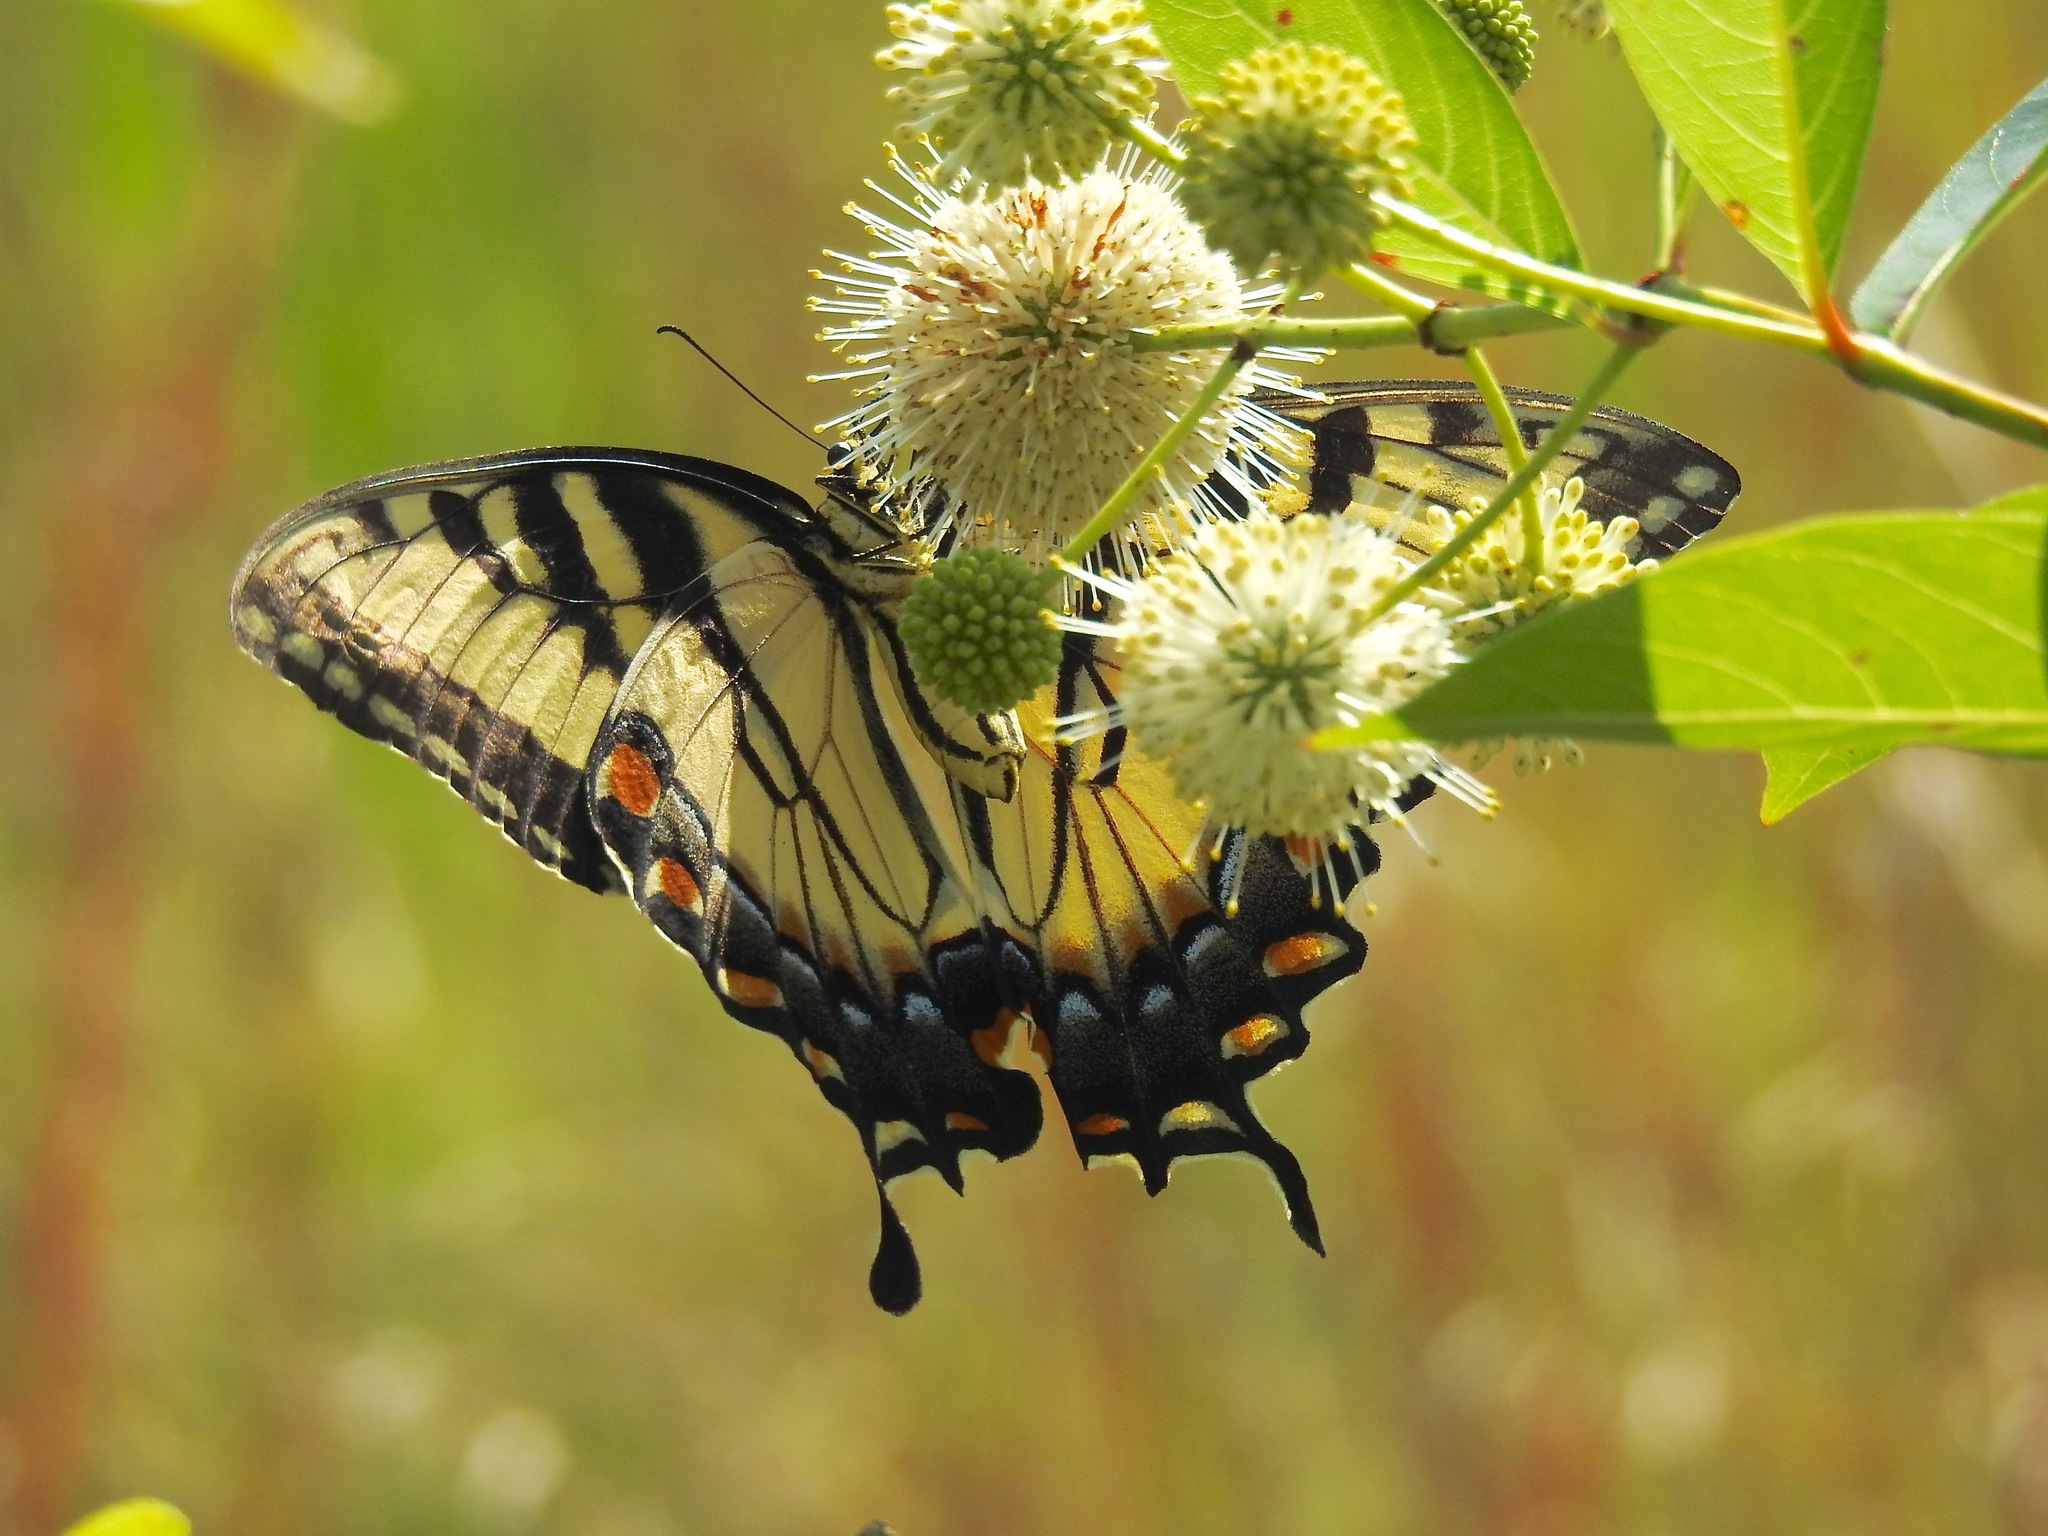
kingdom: Animalia
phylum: Arthropoda
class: Insecta
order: Lepidoptera
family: Papilionidae
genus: Papilio
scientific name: Papilio glaucus
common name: Tiger swallowtail
